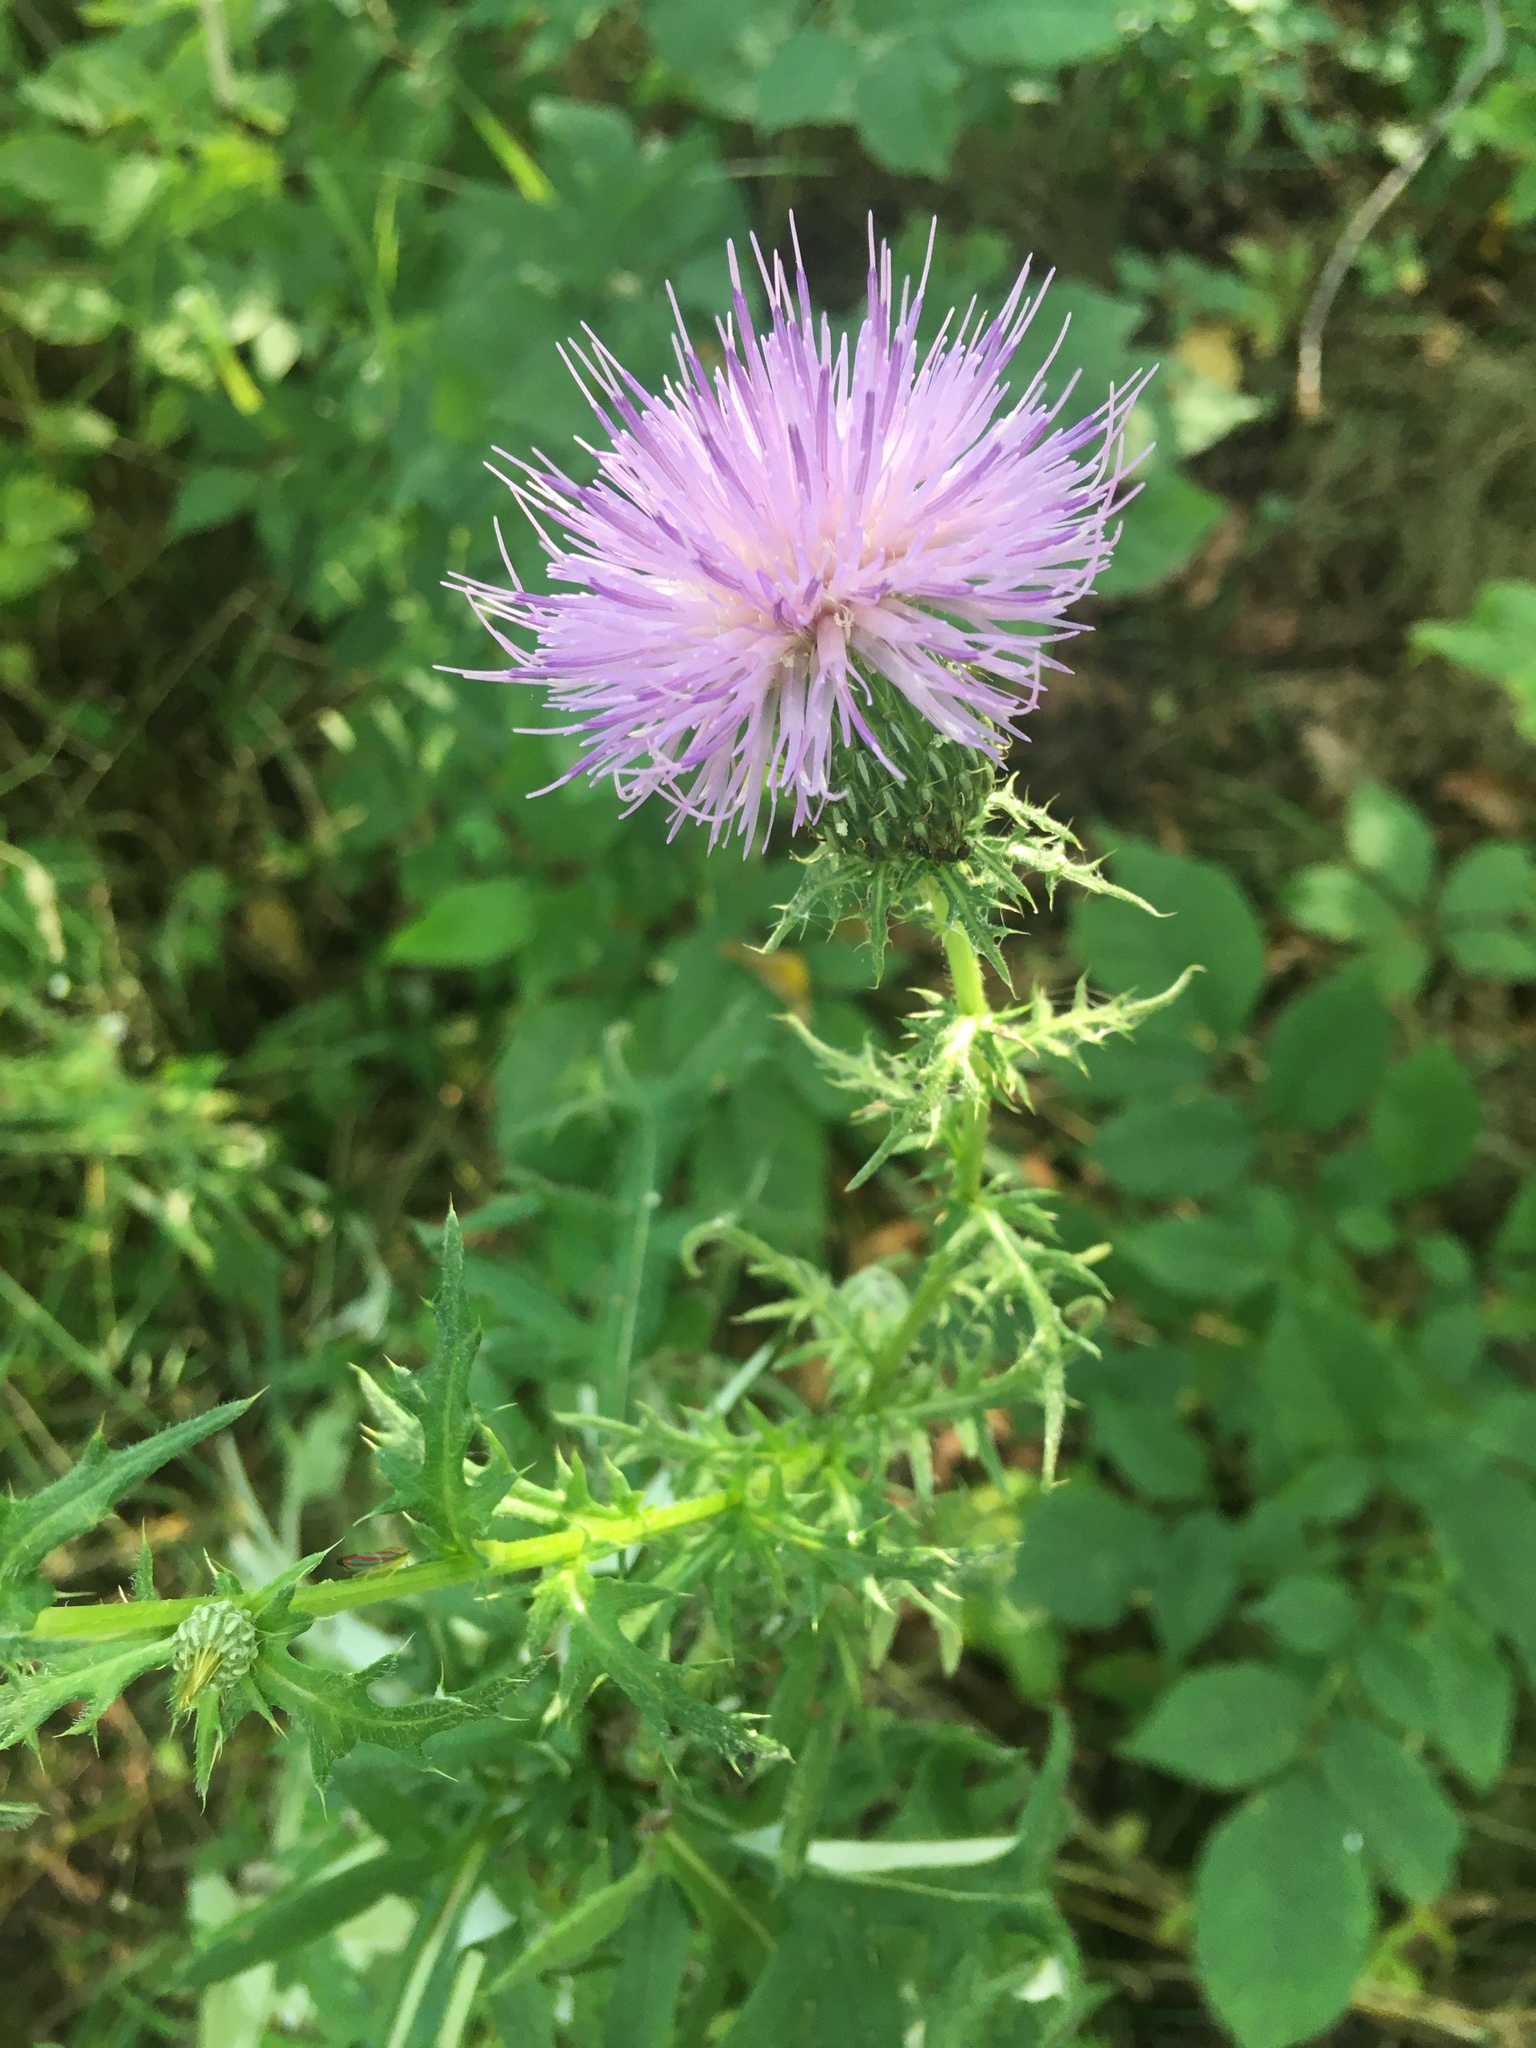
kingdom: Plantae
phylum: Tracheophyta
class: Magnoliopsida
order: Asterales
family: Asteraceae
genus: Cirsium
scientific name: Cirsium discolor
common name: Field thistle
